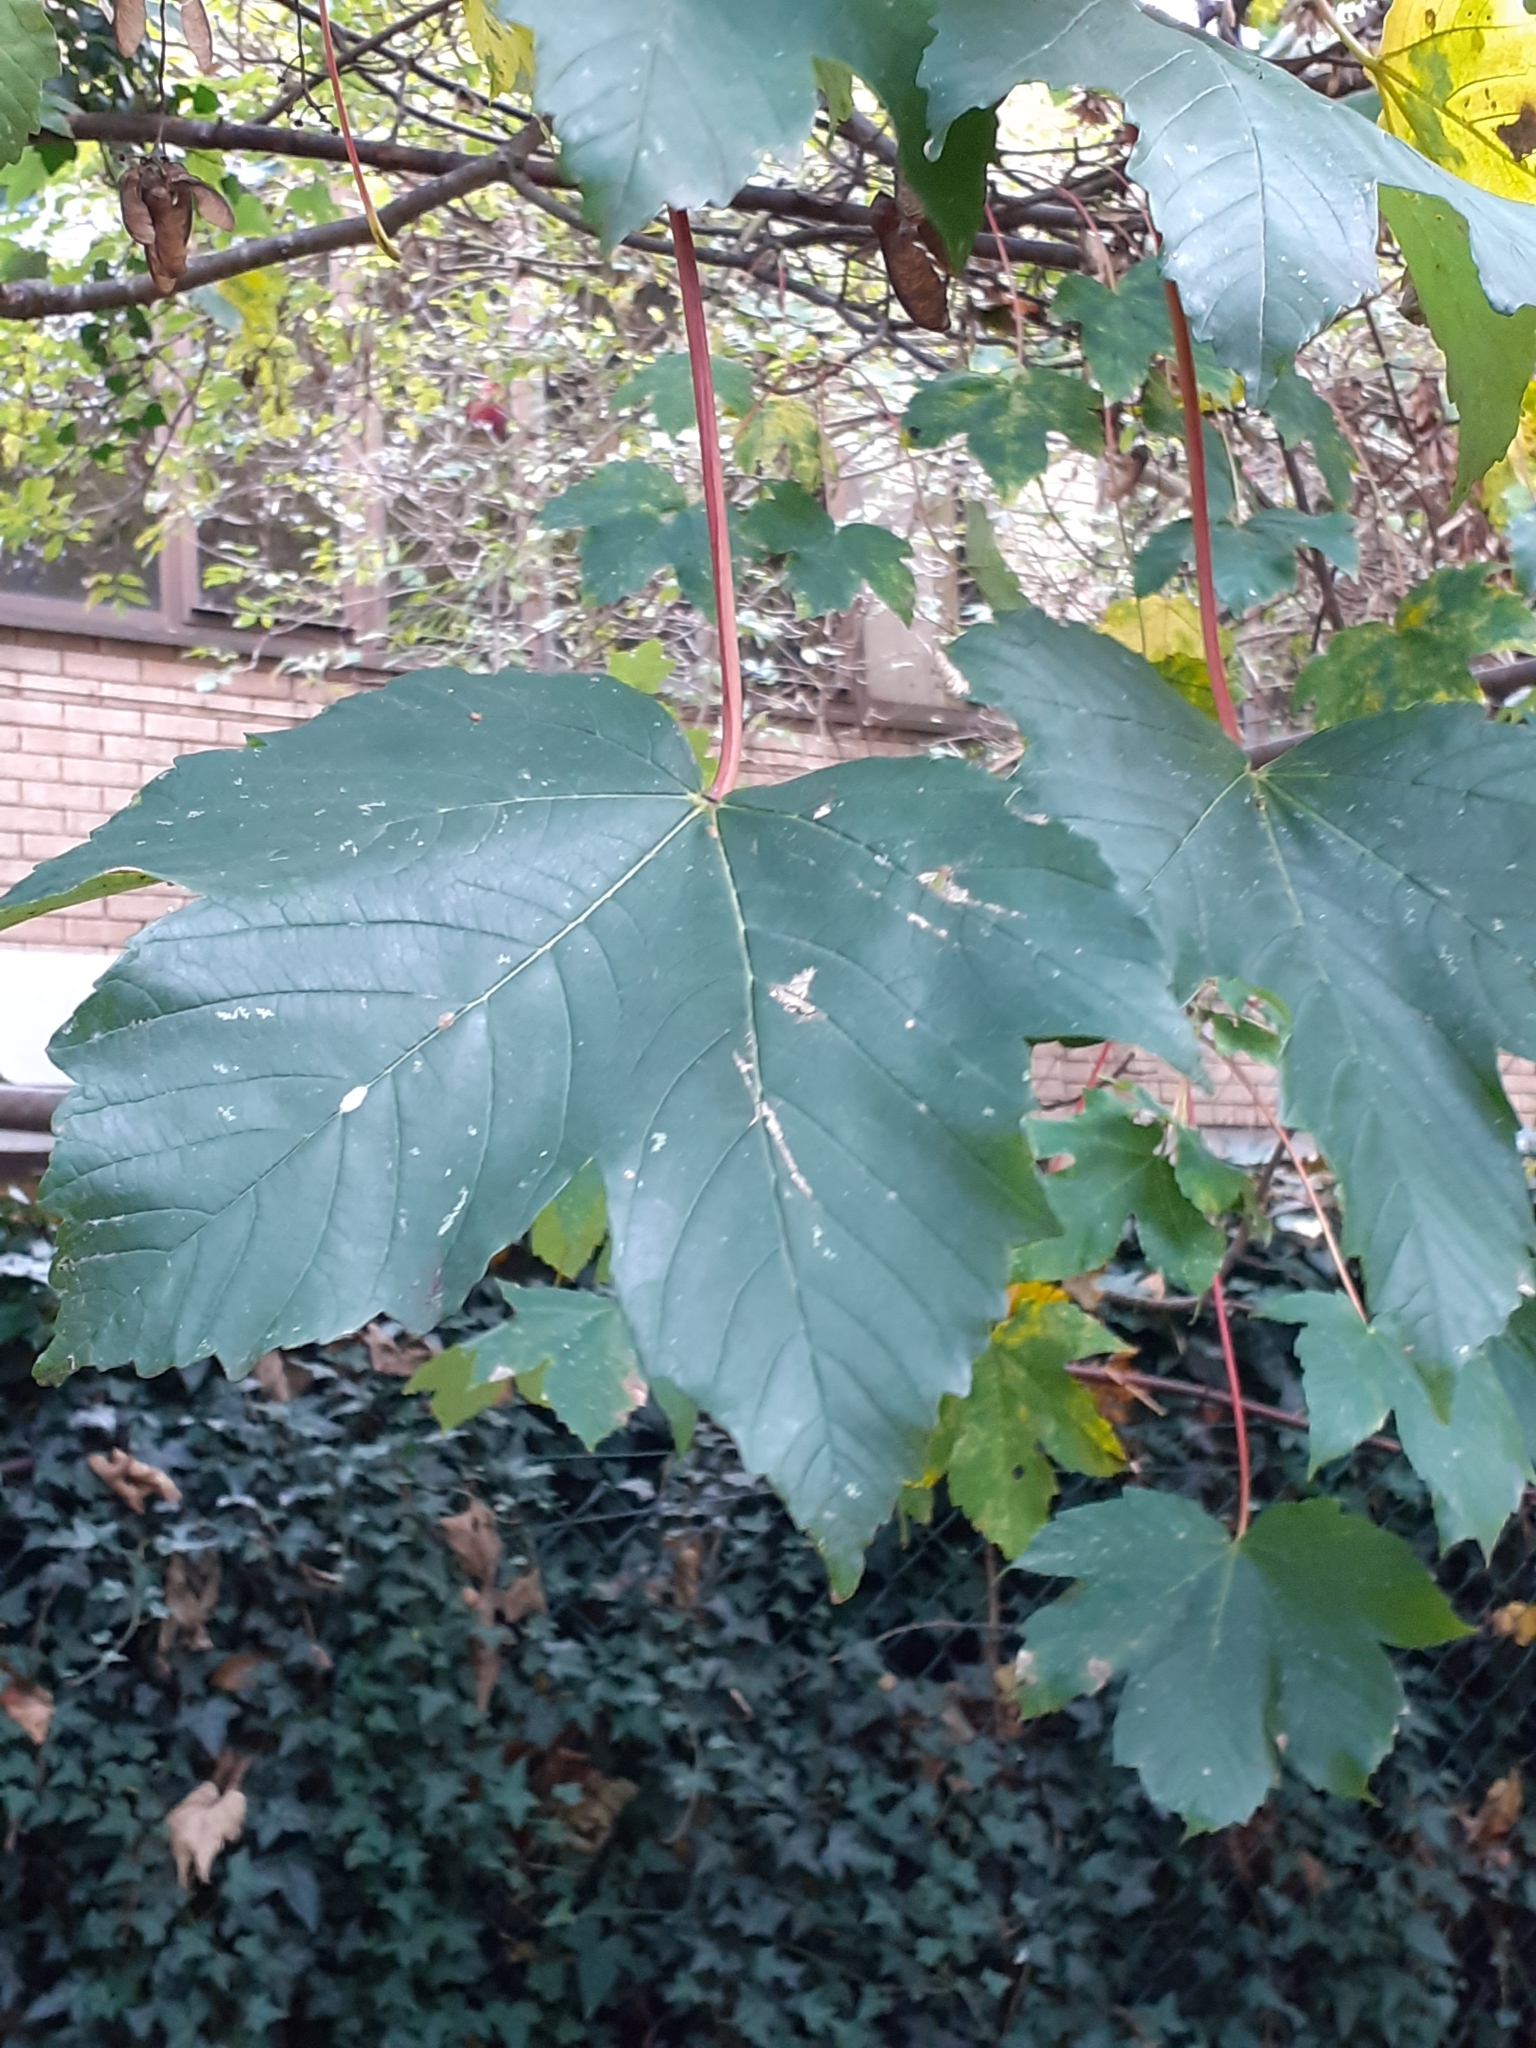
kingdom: Plantae
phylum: Tracheophyta
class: Magnoliopsida
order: Sapindales
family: Sapindaceae
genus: Acer
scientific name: Acer pseudoplatanus
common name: Sycamore
